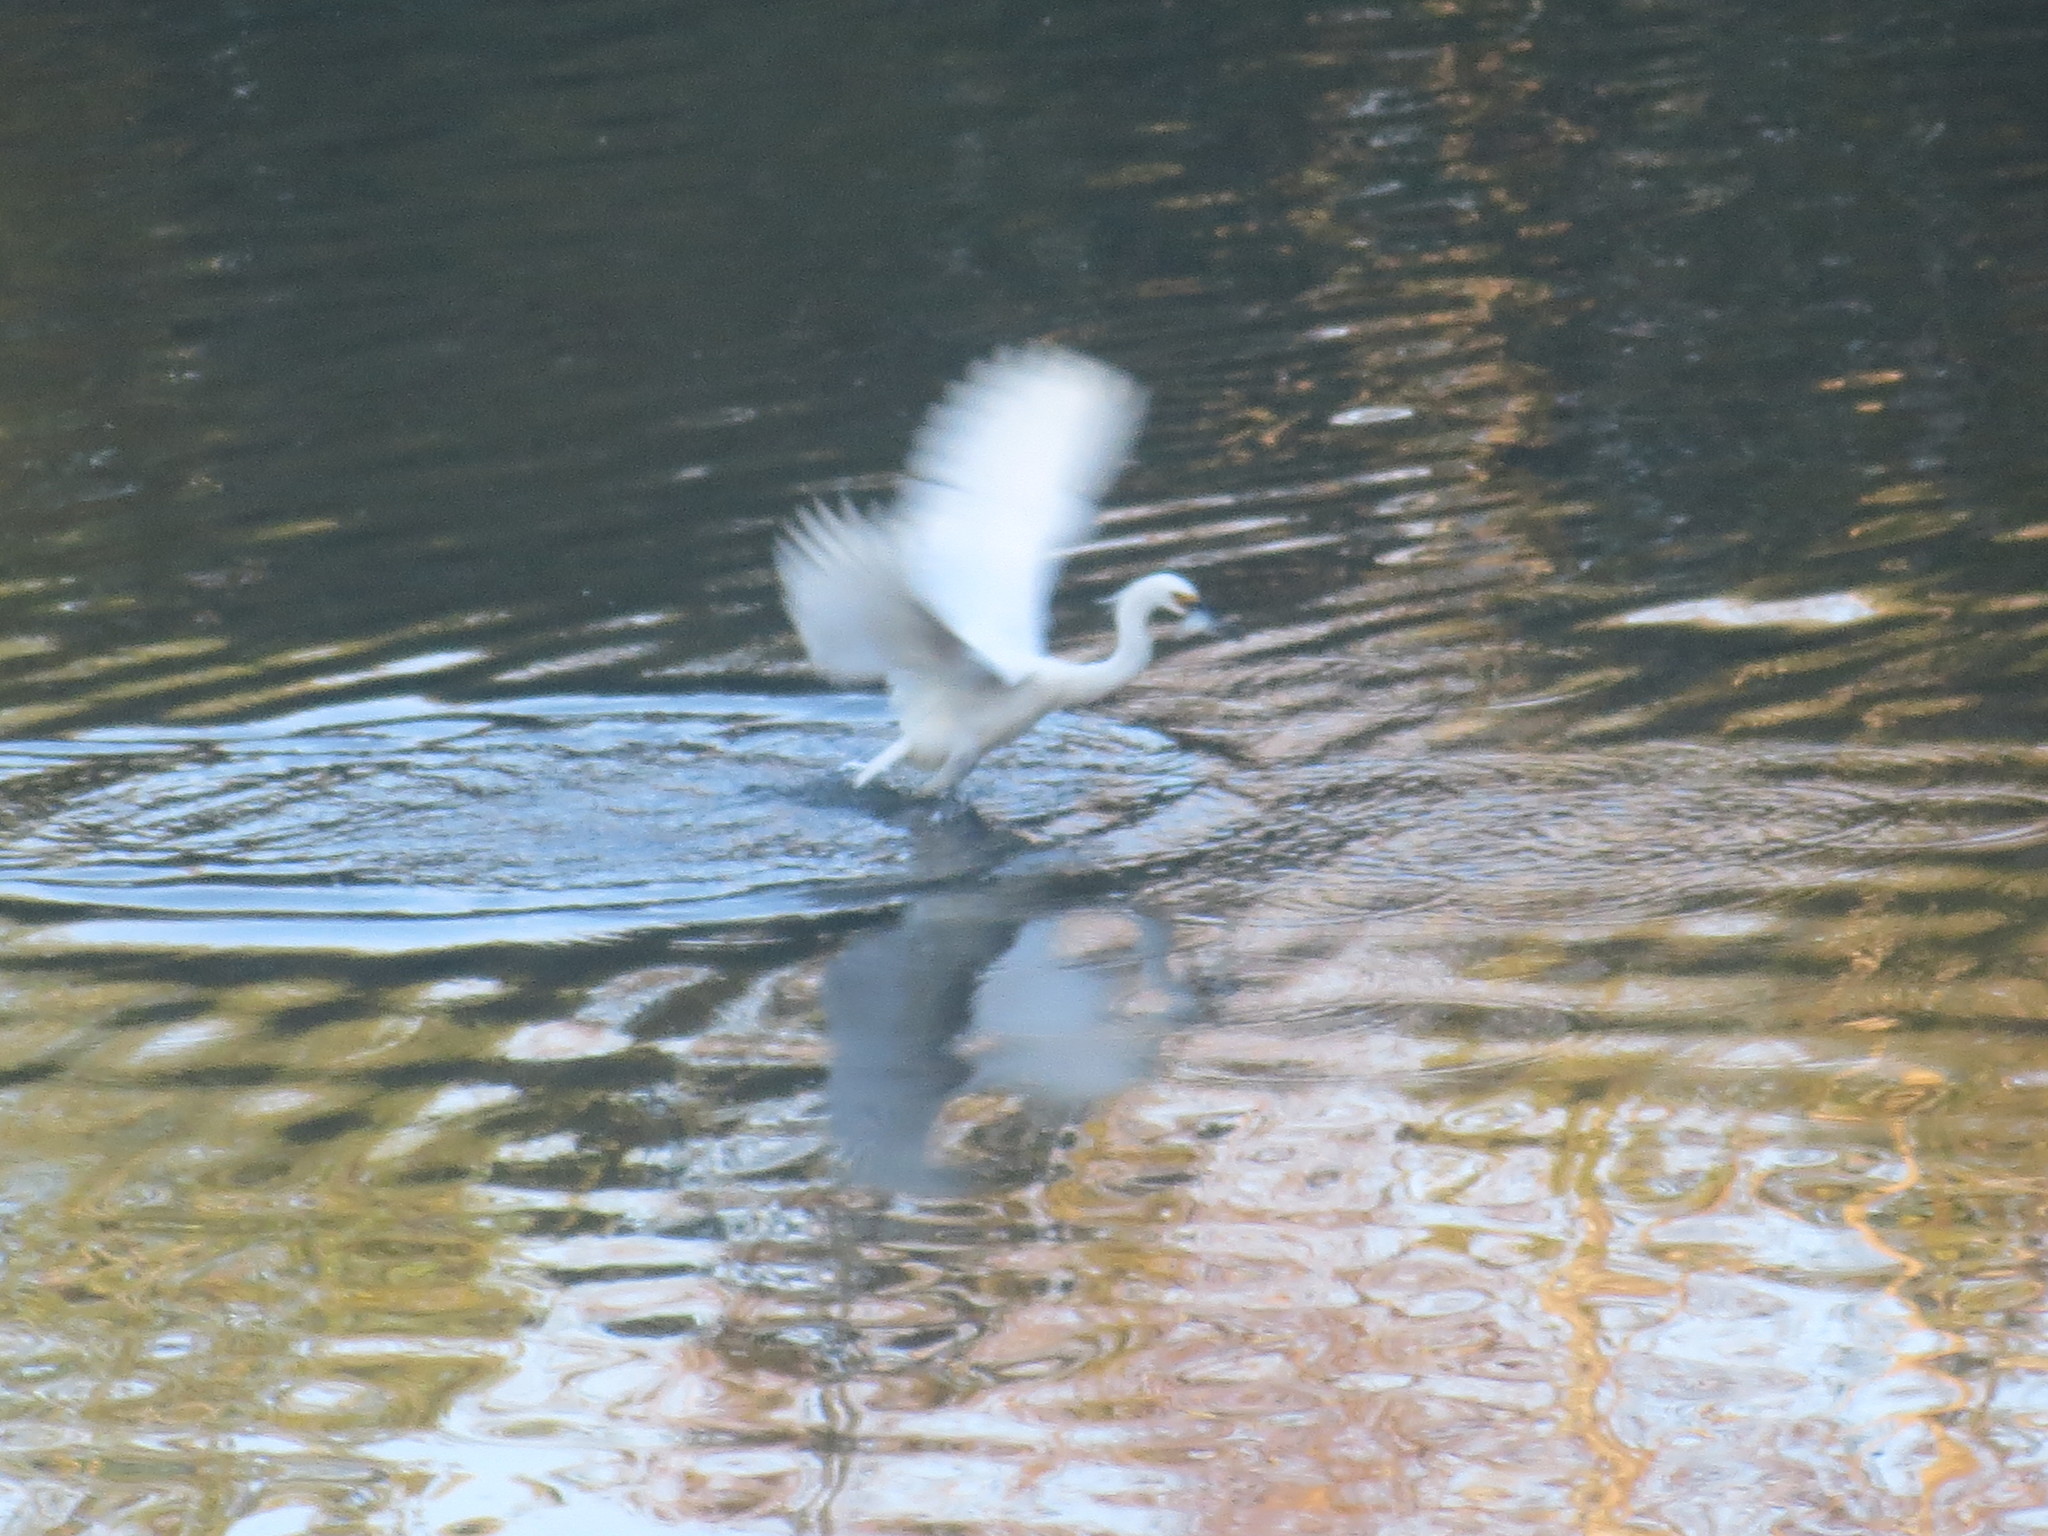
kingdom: Animalia
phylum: Chordata
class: Aves
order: Pelecaniformes
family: Ardeidae
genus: Egretta
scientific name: Egretta thula
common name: Snowy egret
